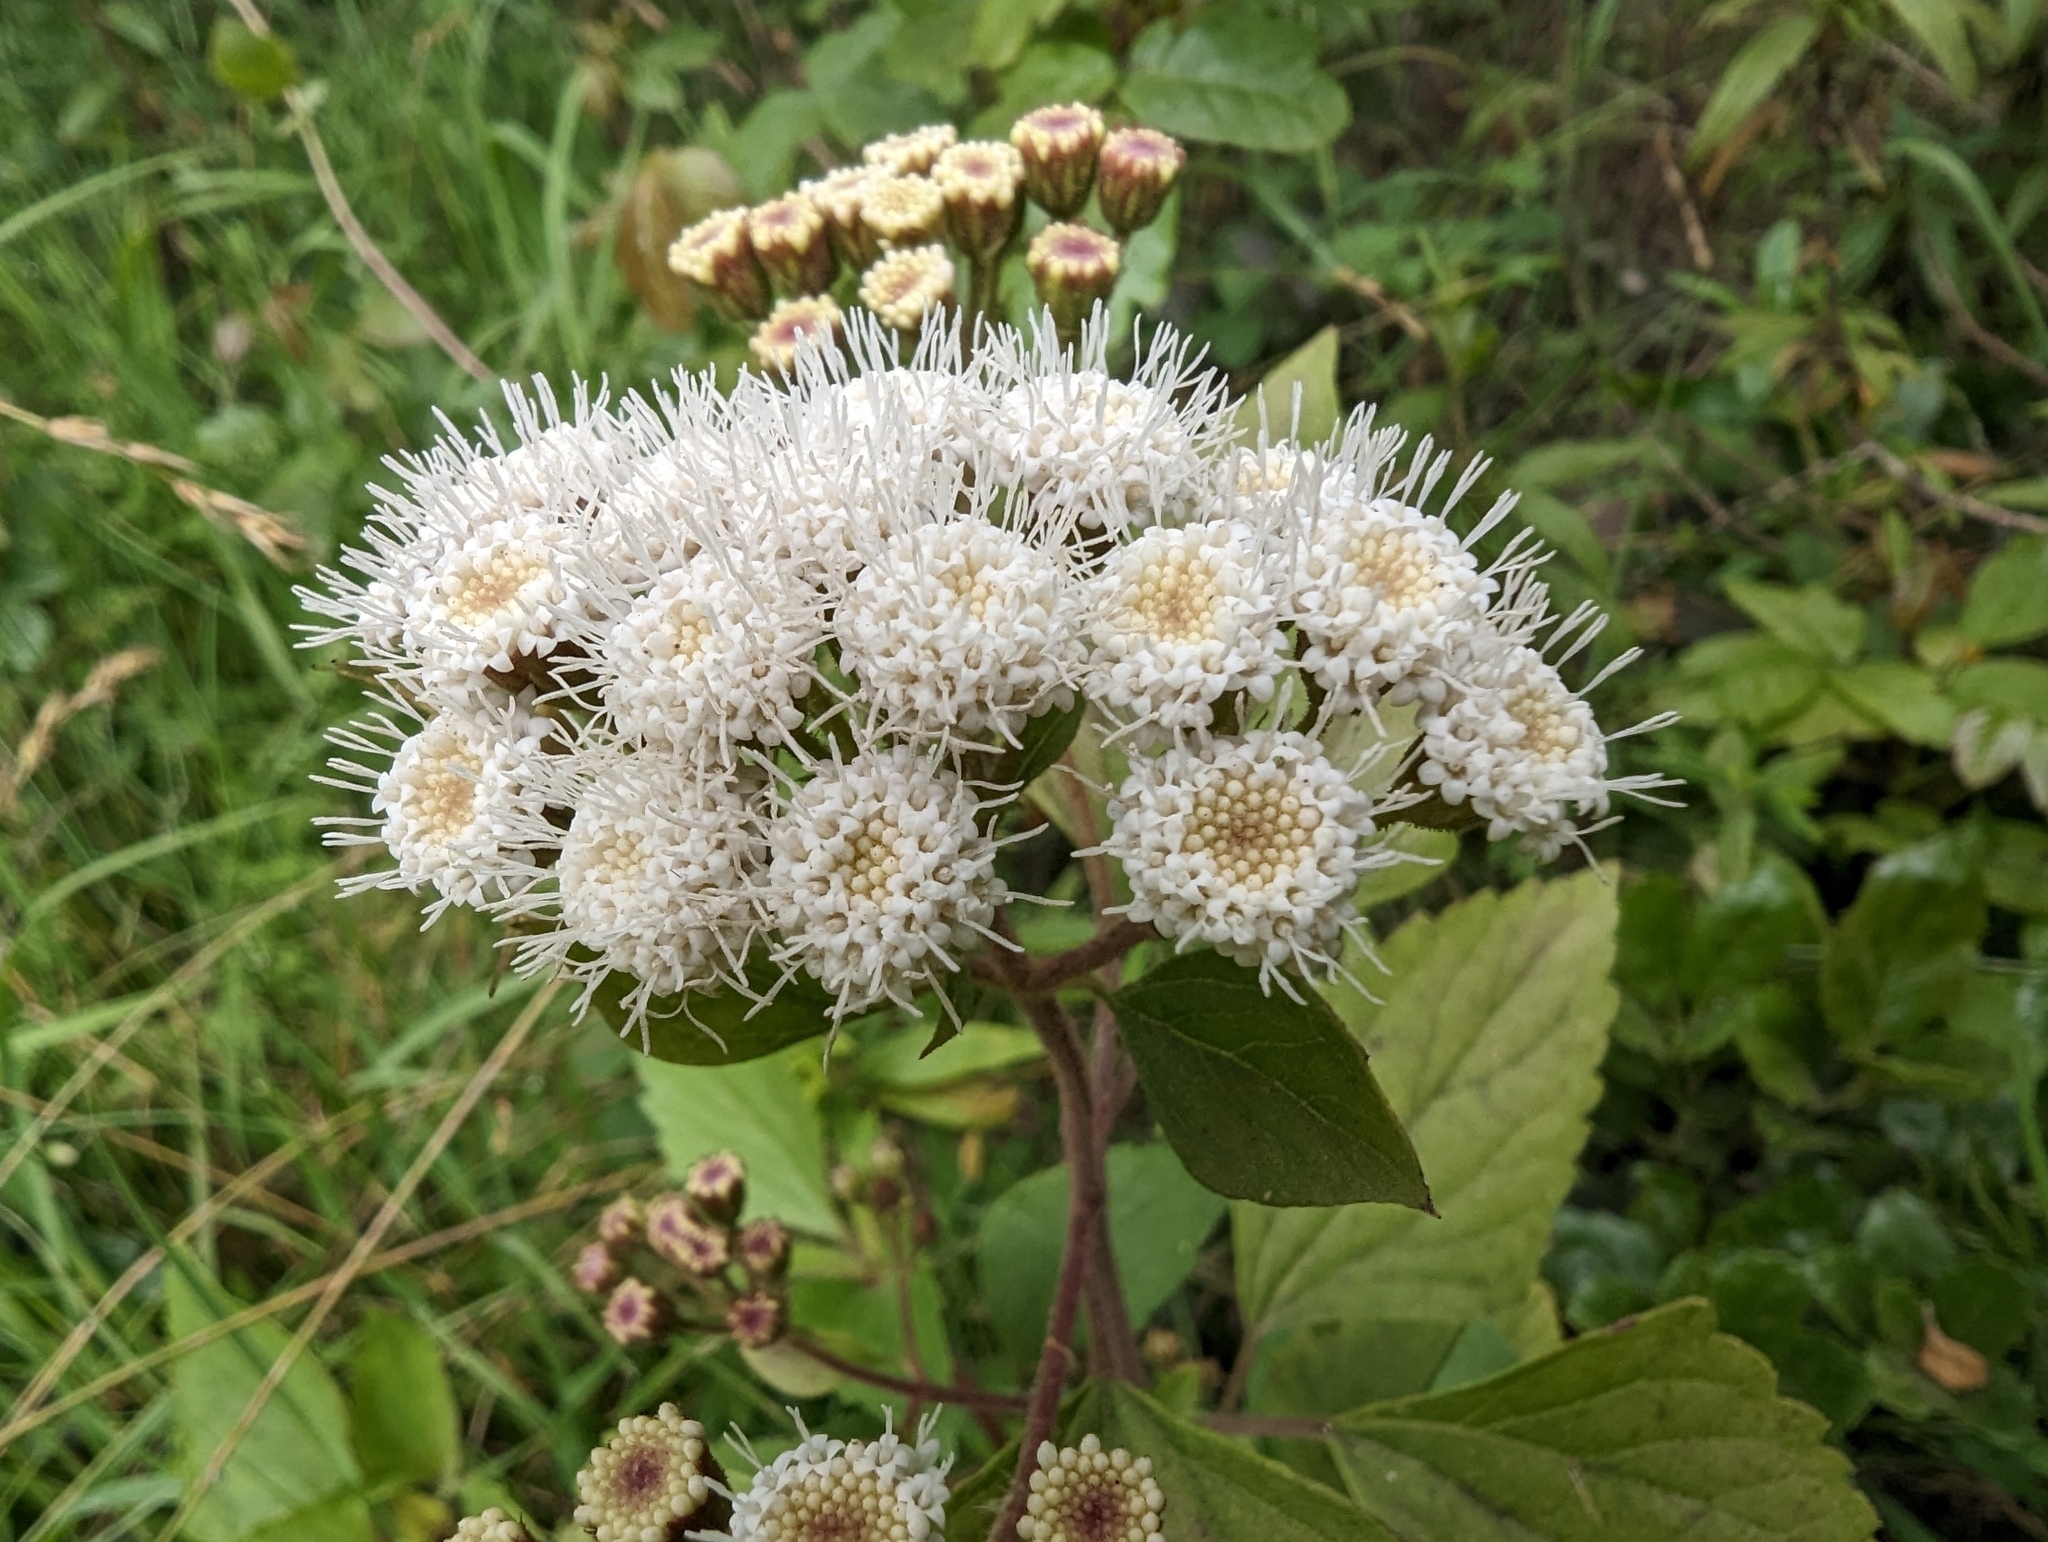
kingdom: Plantae
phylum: Tracheophyta
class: Magnoliopsida
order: Asterales
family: Asteraceae
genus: Ageratina
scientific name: Ageratina adenophora
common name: Sticky snakeroot
